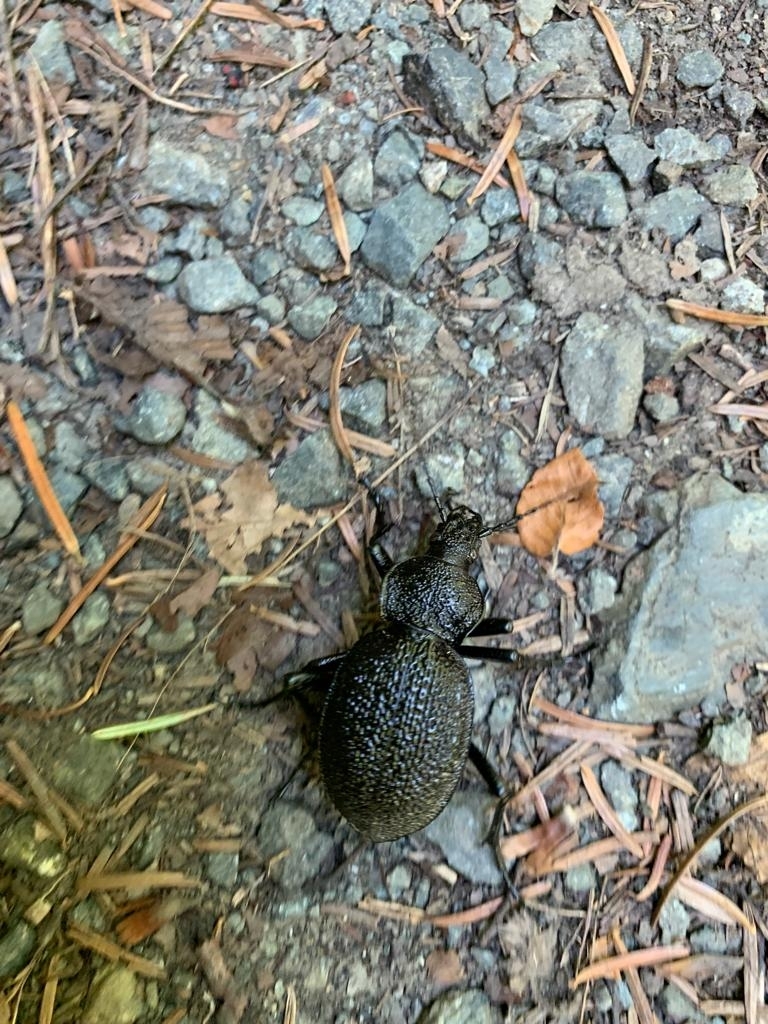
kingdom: Animalia
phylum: Arthropoda
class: Insecta
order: Coleoptera
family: Carabidae
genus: Carabus
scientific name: Carabus gigas
